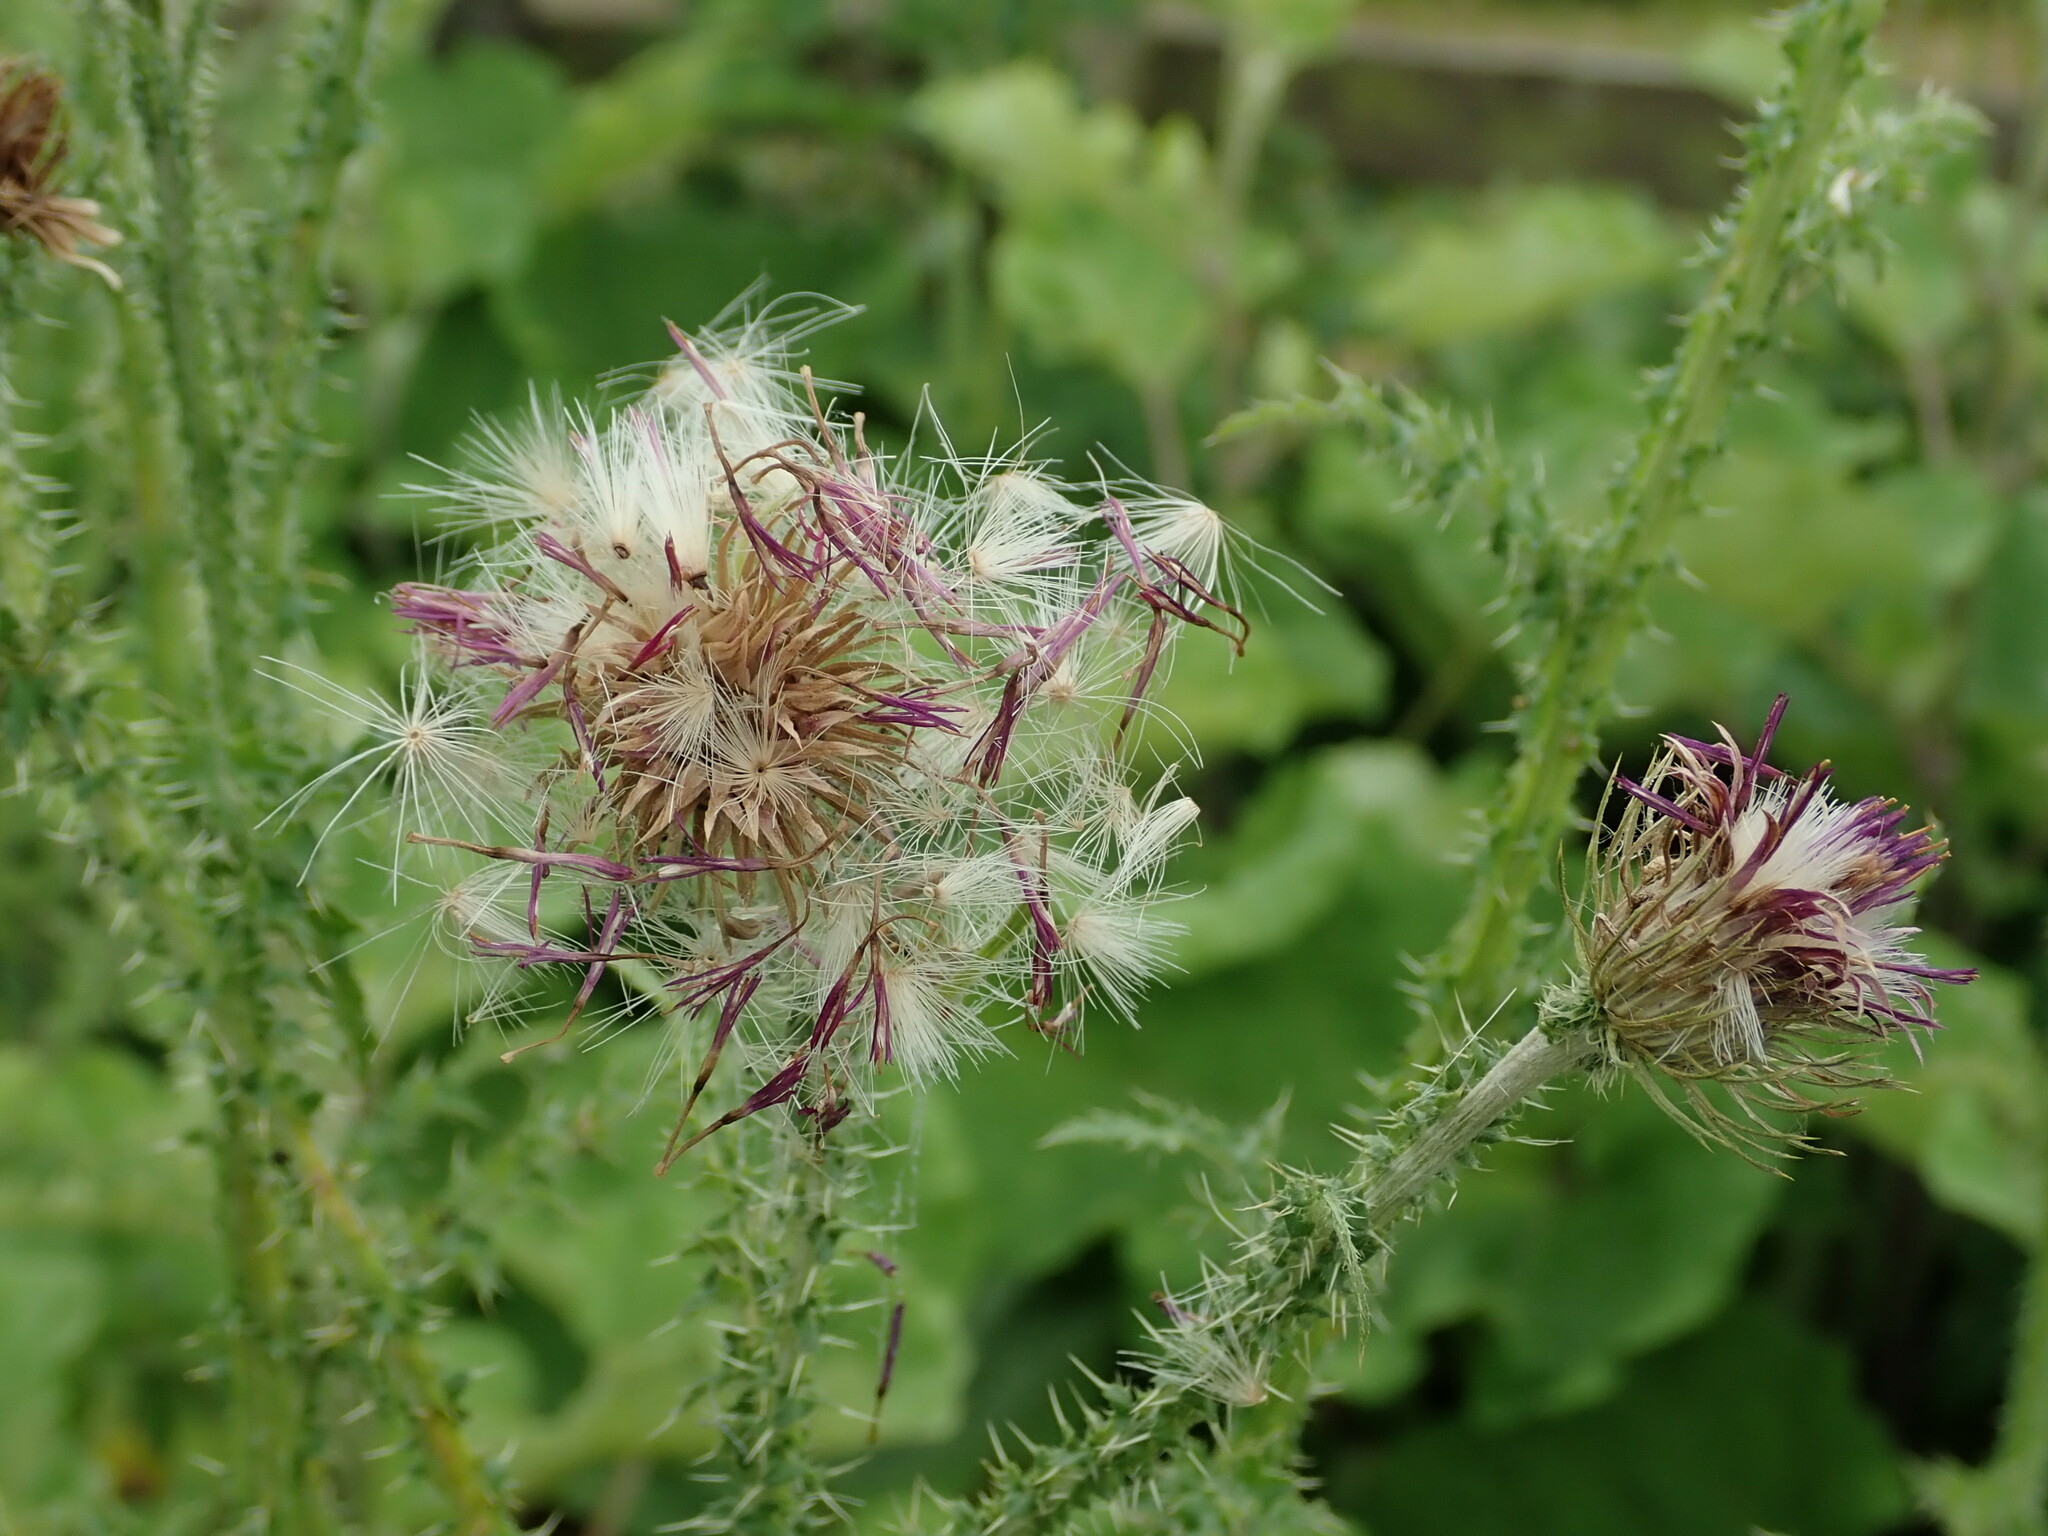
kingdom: Plantae
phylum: Tracheophyta
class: Magnoliopsida
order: Asterales
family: Asteraceae
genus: Carduus
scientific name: Carduus crispus
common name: Welted thistle
